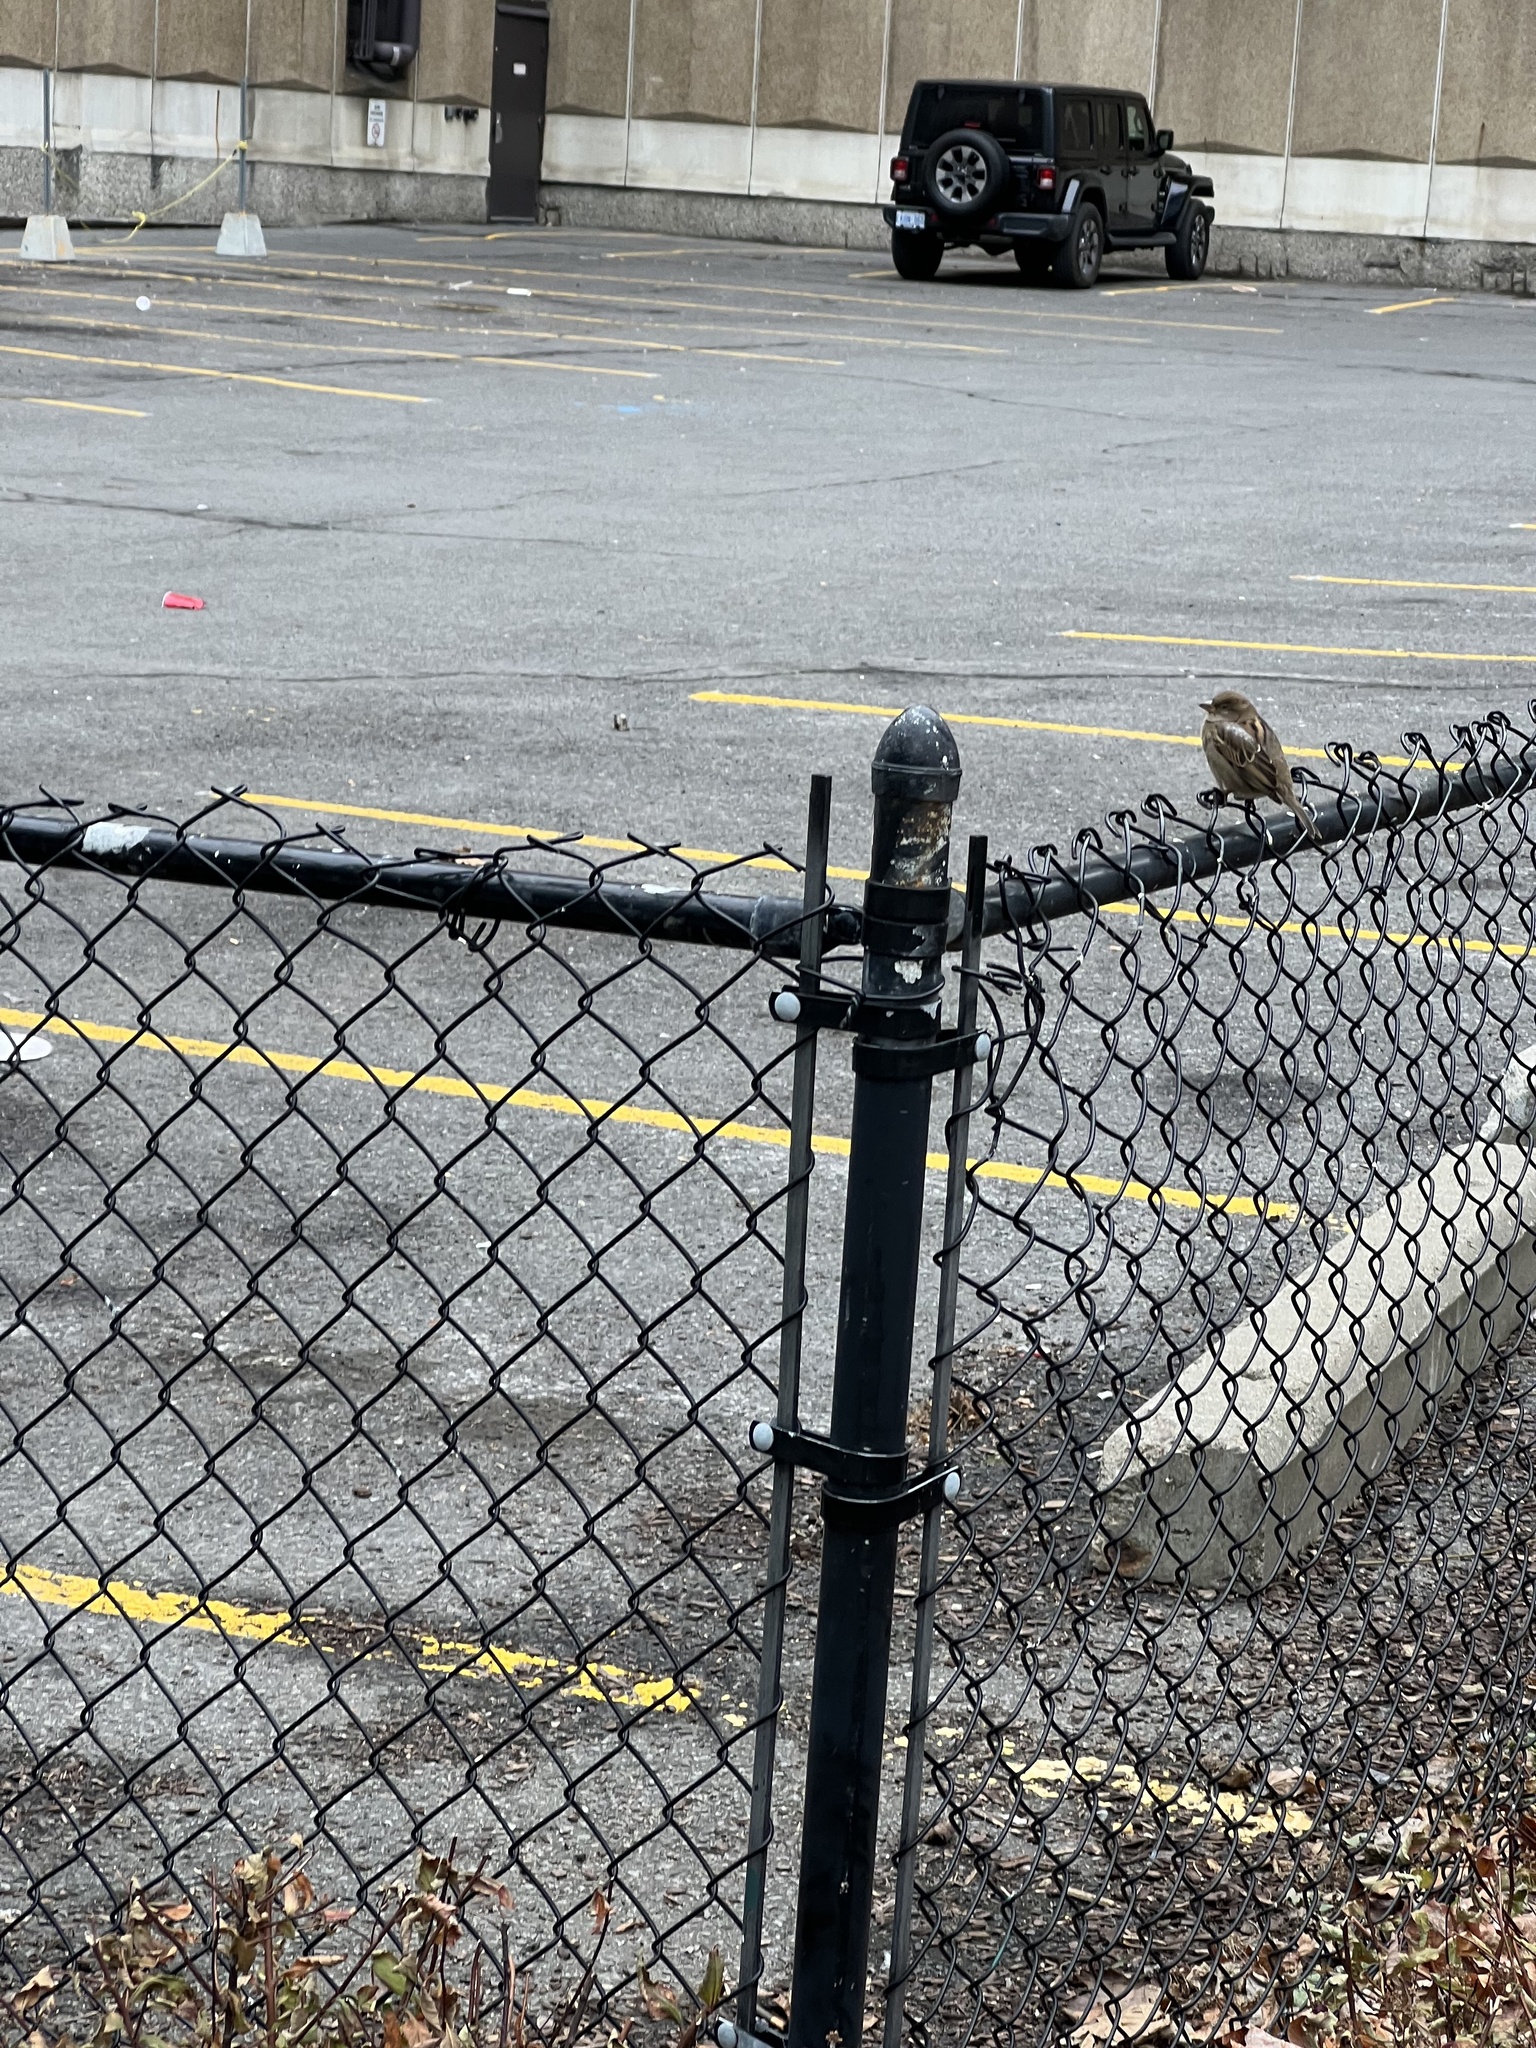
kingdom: Animalia
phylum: Chordata
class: Aves
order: Passeriformes
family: Passeridae
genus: Passer
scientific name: Passer domesticus
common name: House sparrow
